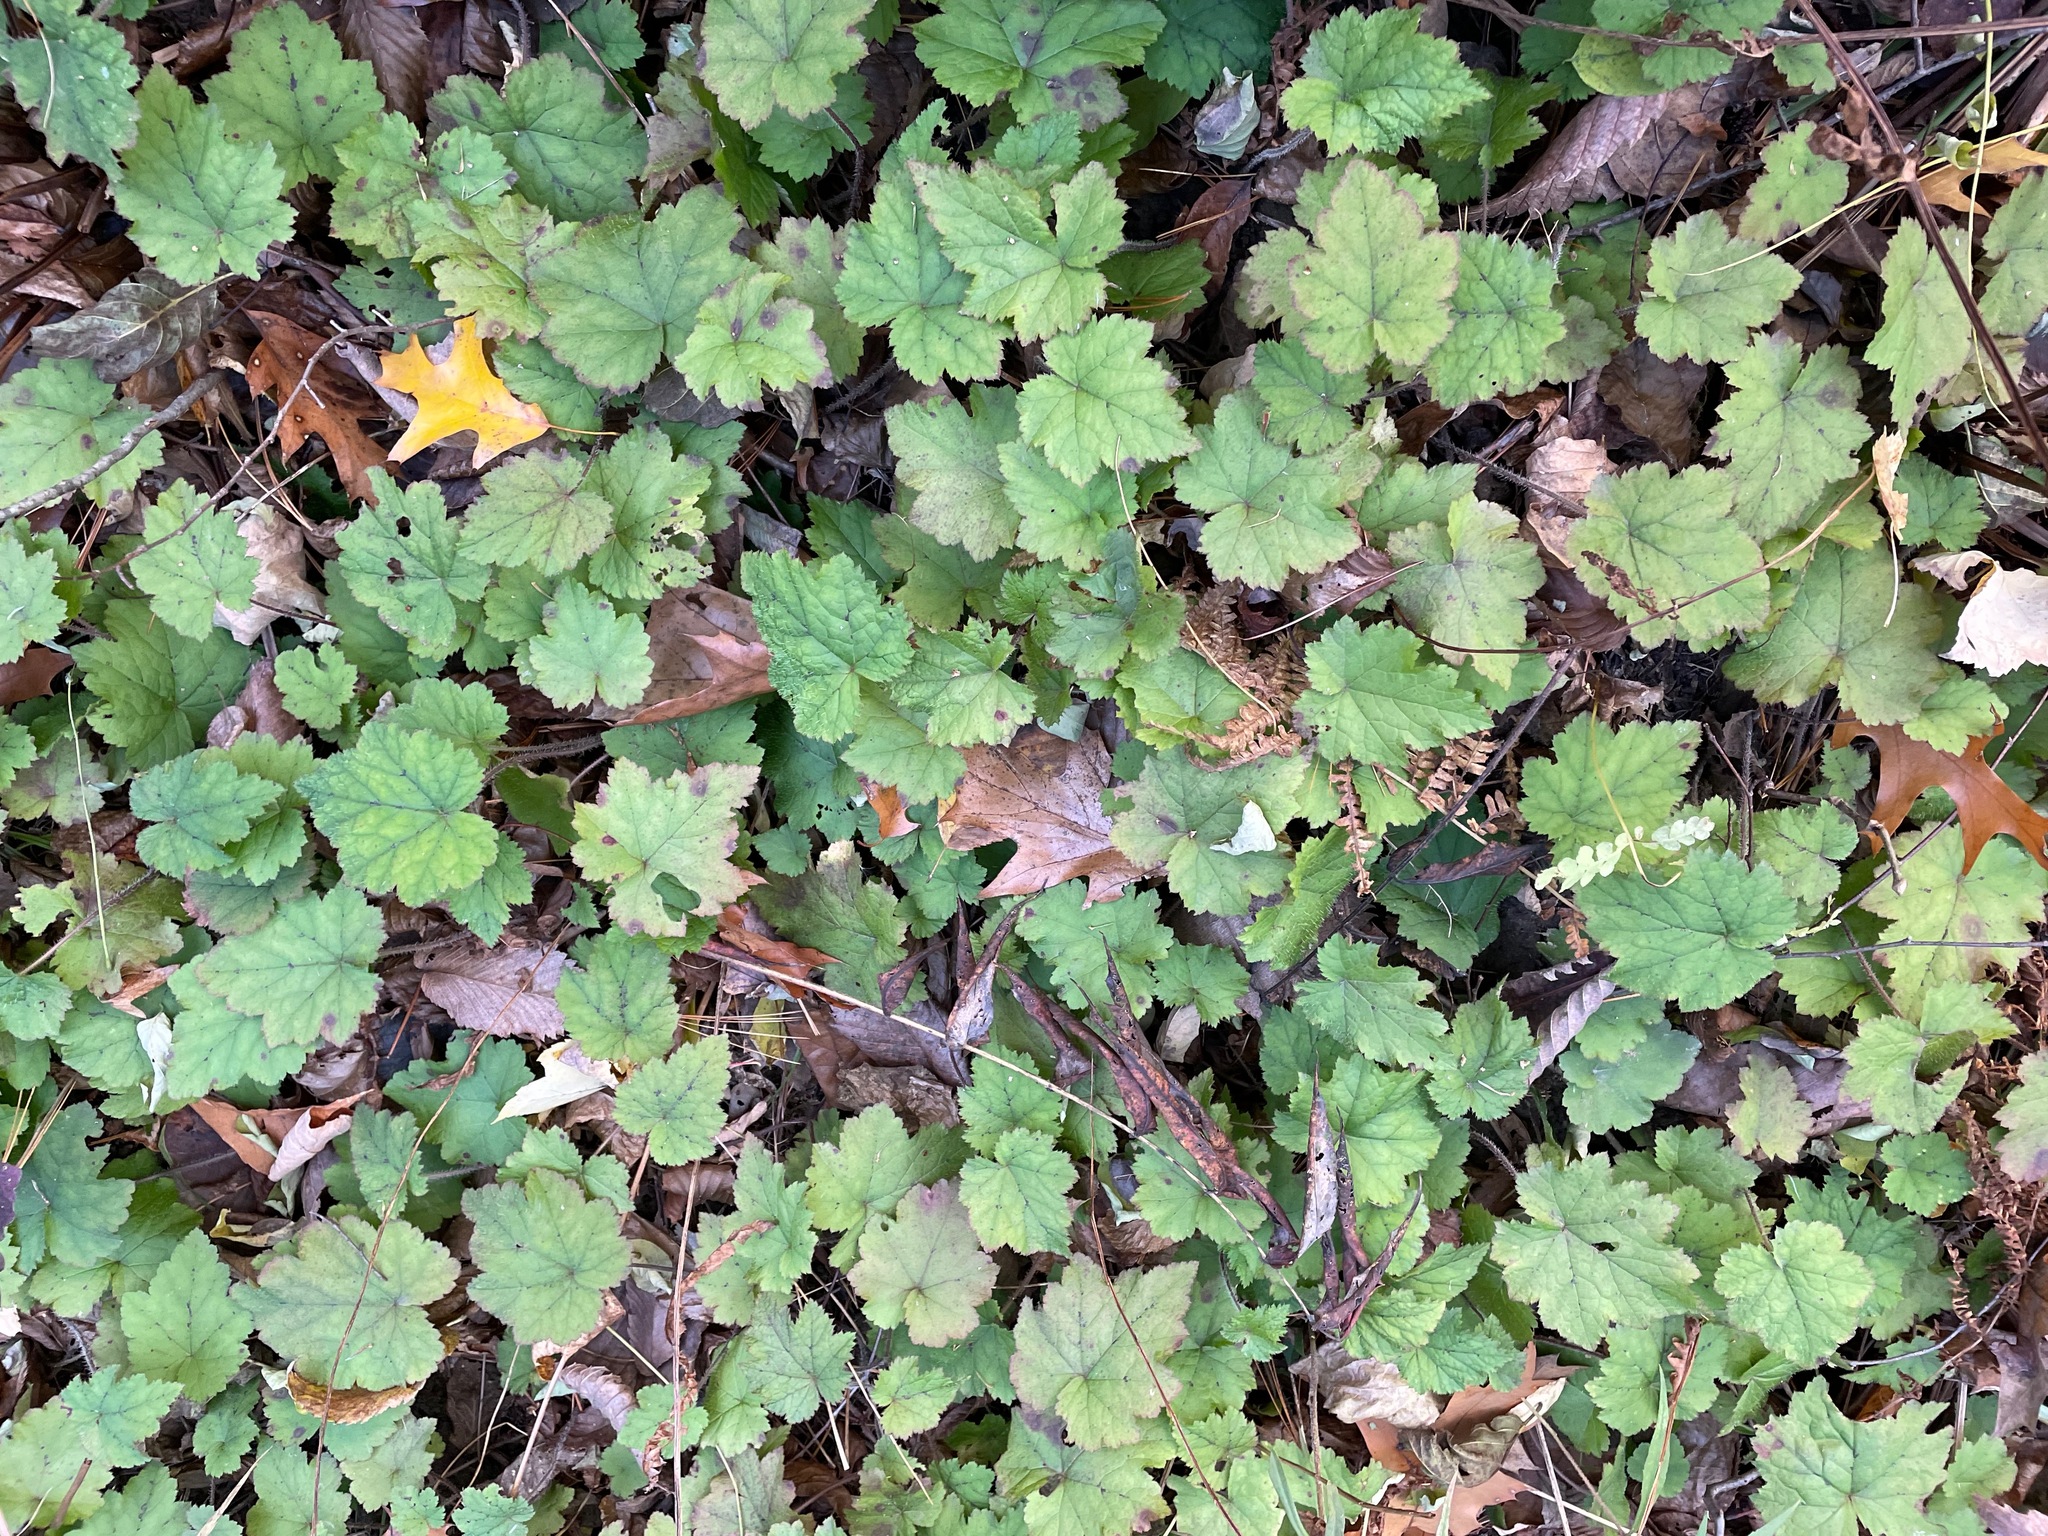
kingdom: Plantae
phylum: Tracheophyta
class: Magnoliopsida
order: Saxifragales
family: Saxifragaceae
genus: Tiarella
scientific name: Tiarella stolonifera
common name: Stoloniferous foamflower
